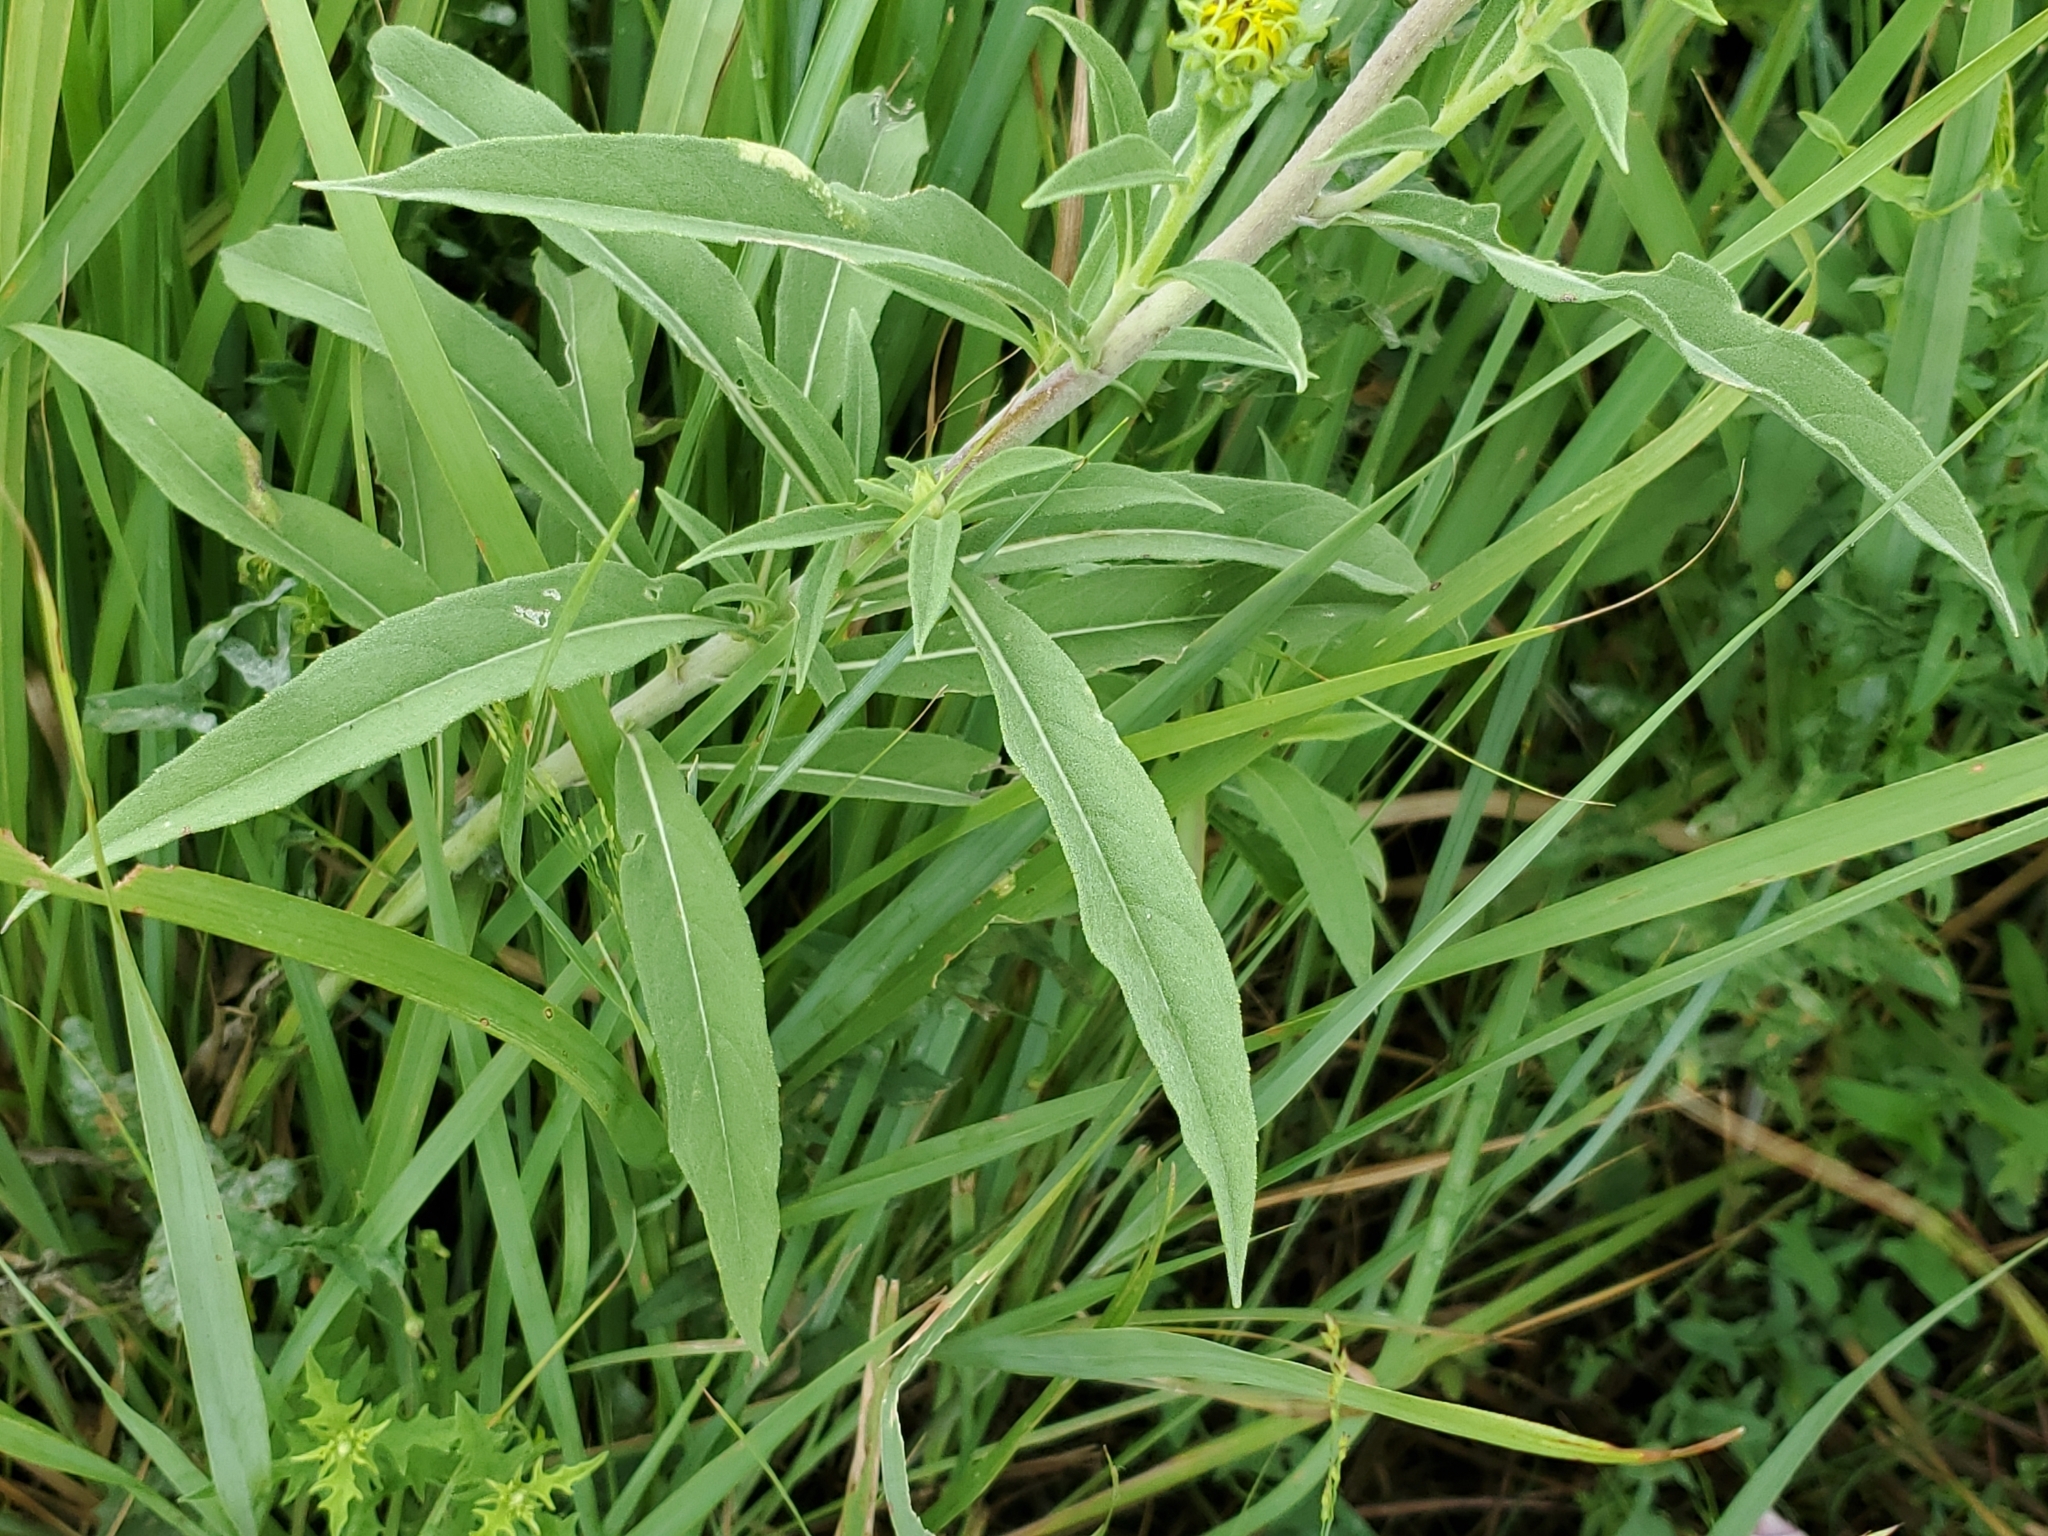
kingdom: Plantae
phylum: Tracheophyta
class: Magnoliopsida
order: Asterales
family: Asteraceae
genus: Helianthus
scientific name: Helianthus maximiliani
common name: Maximilian's sunflower
